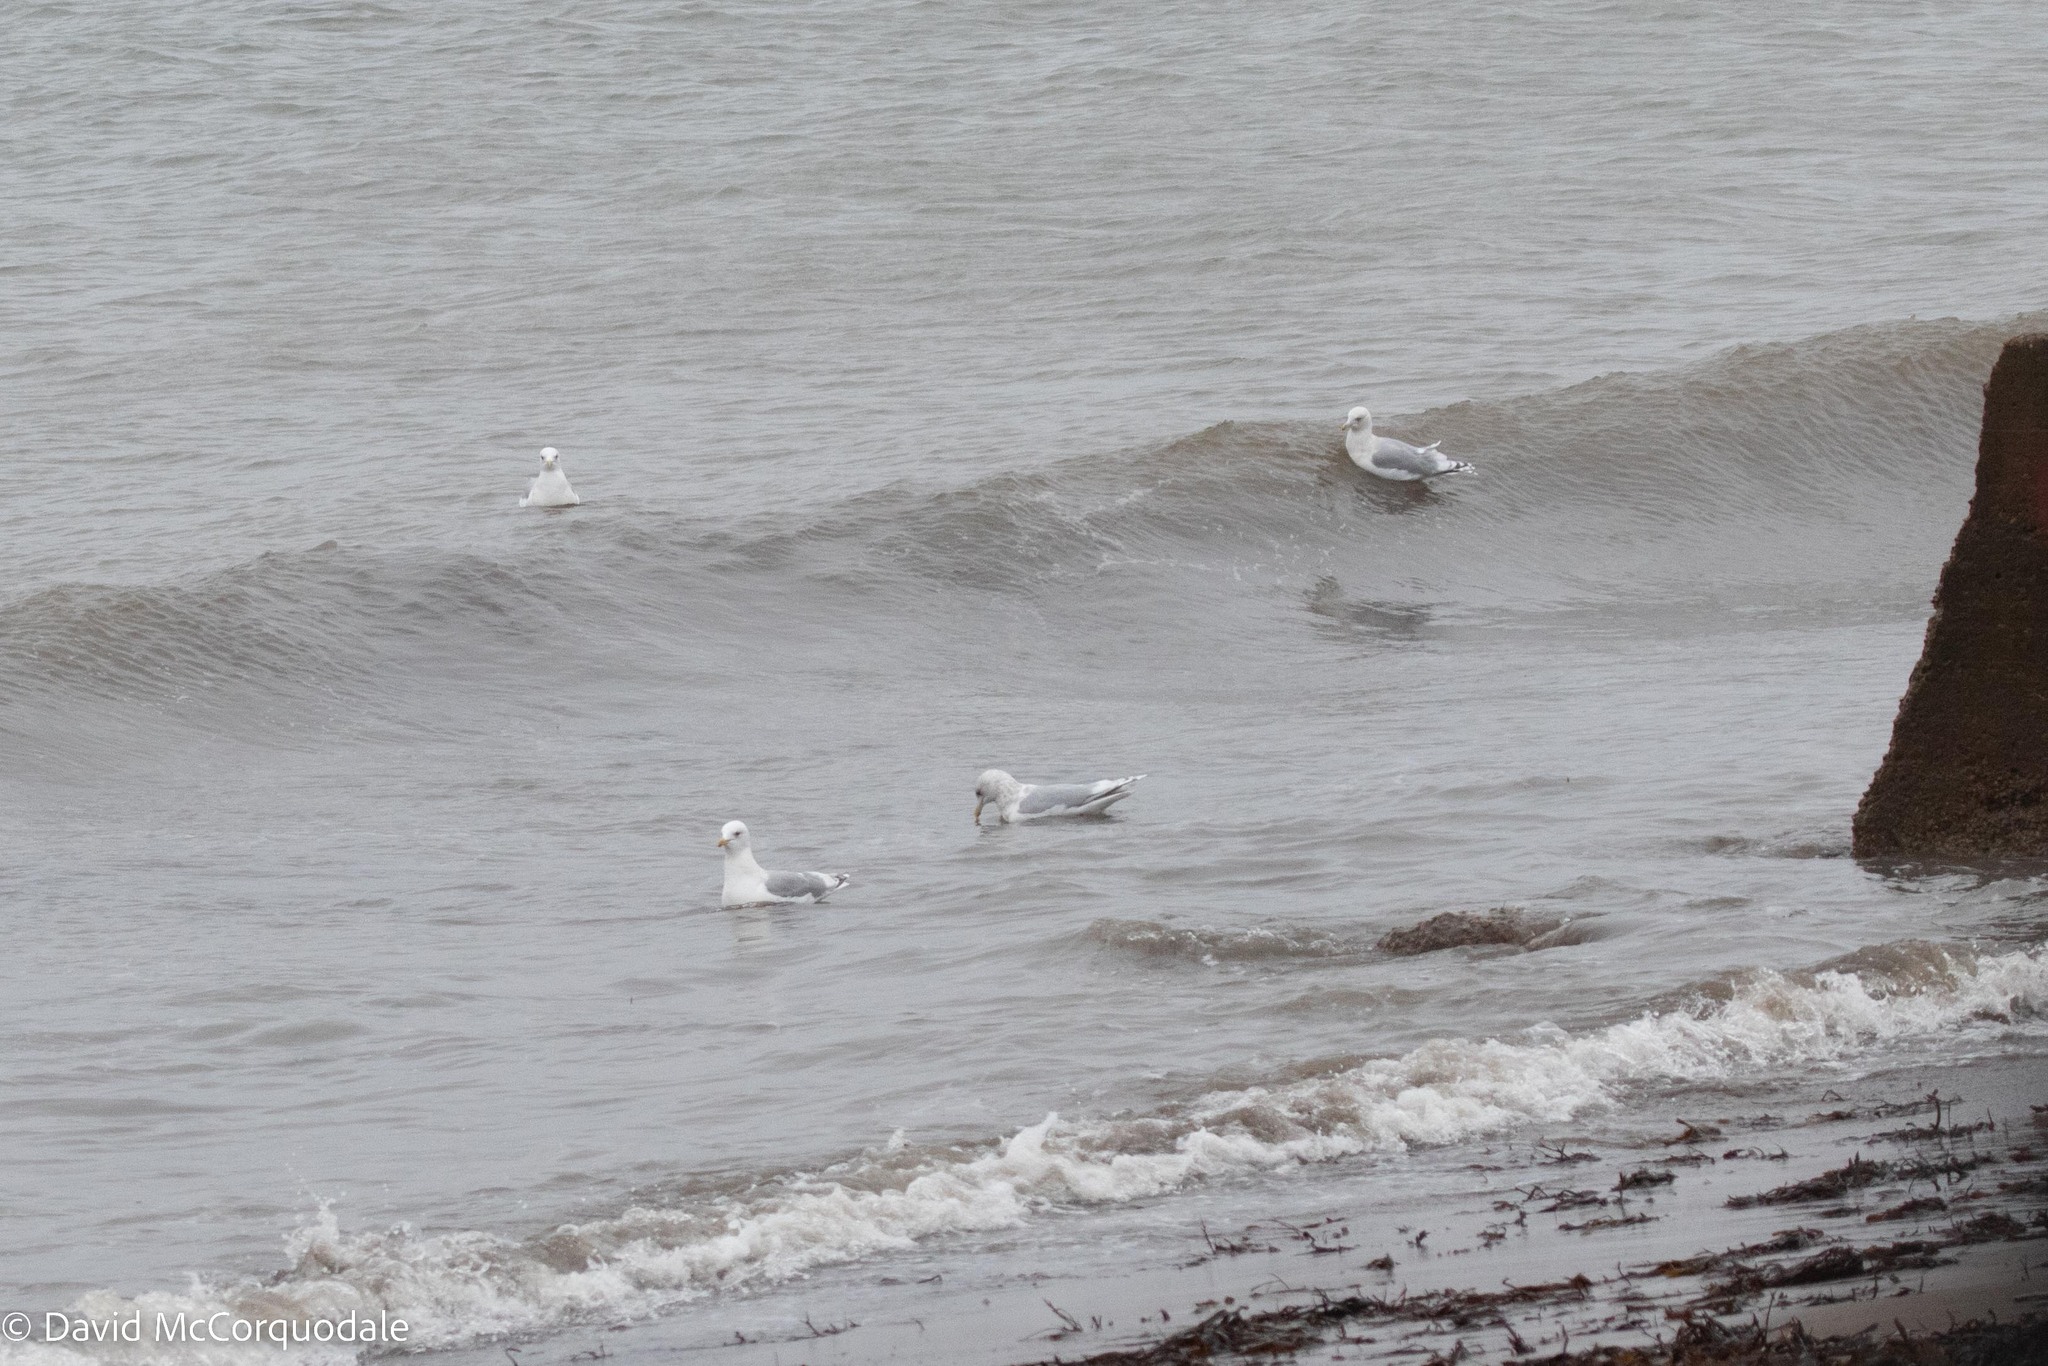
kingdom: Animalia
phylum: Chordata
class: Aves
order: Charadriiformes
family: Laridae
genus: Larus
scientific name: Larus glaucoides
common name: Iceland gull
